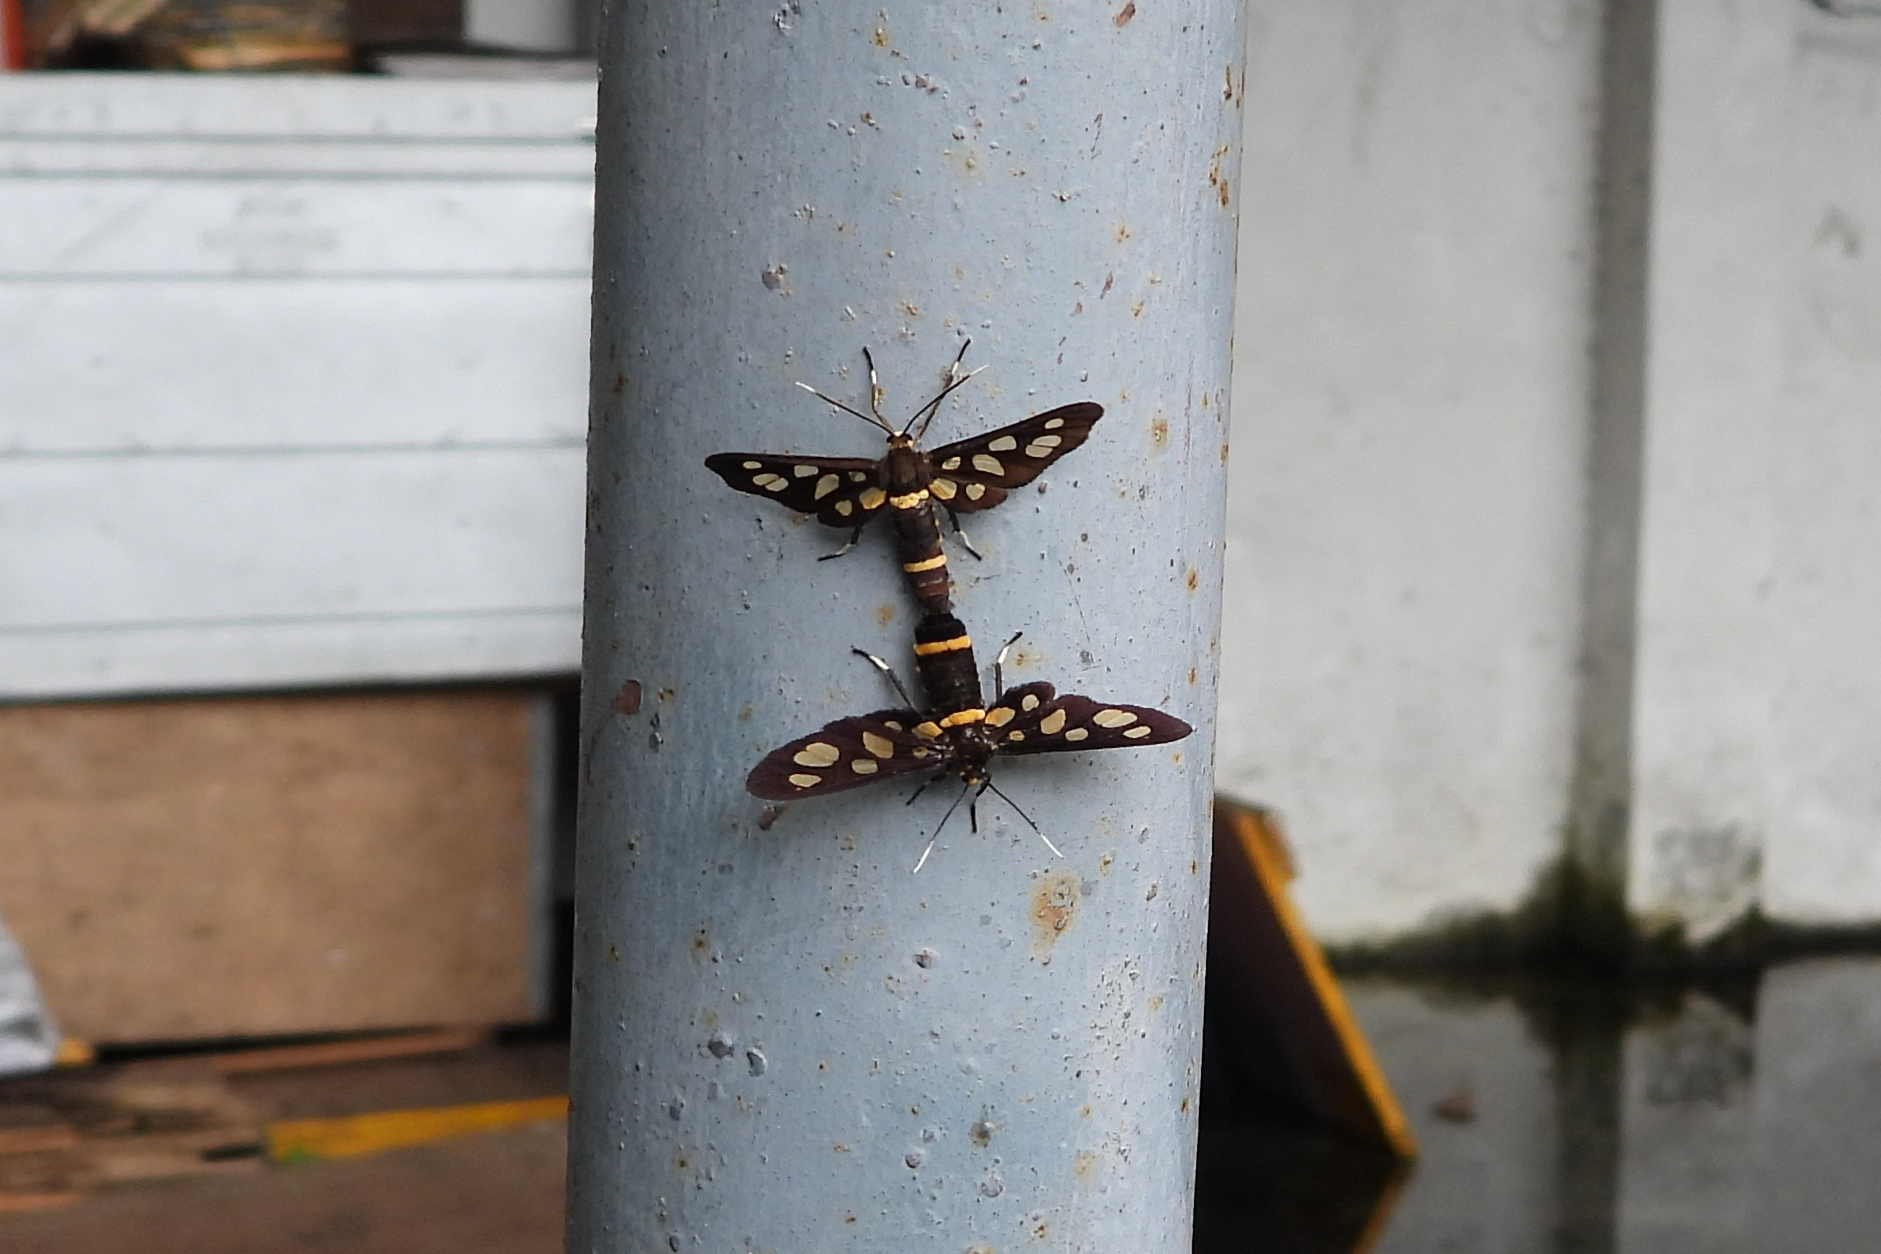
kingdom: Animalia
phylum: Arthropoda
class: Insecta
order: Lepidoptera
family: Erebidae
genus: Amata
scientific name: Amata bicincta
